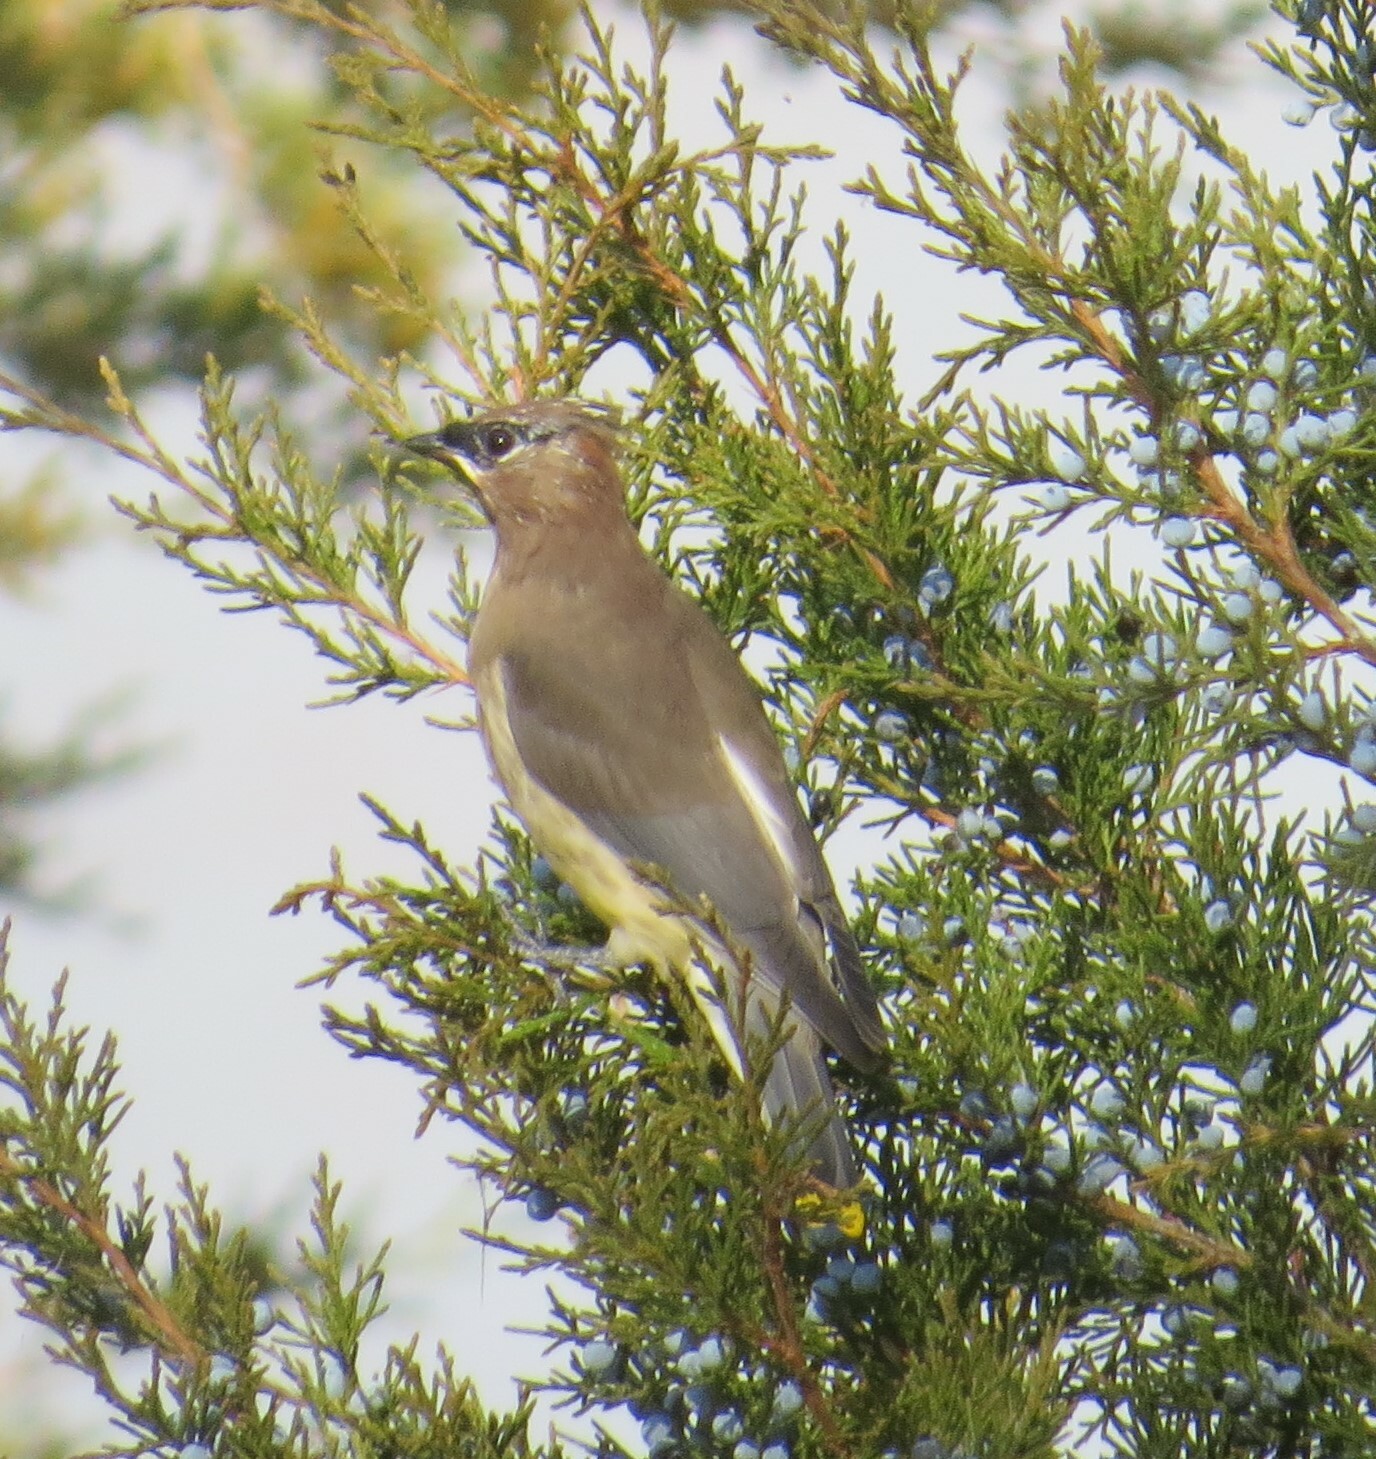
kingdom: Animalia
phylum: Chordata
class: Aves
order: Passeriformes
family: Bombycillidae
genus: Bombycilla
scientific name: Bombycilla cedrorum
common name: Cedar waxwing
